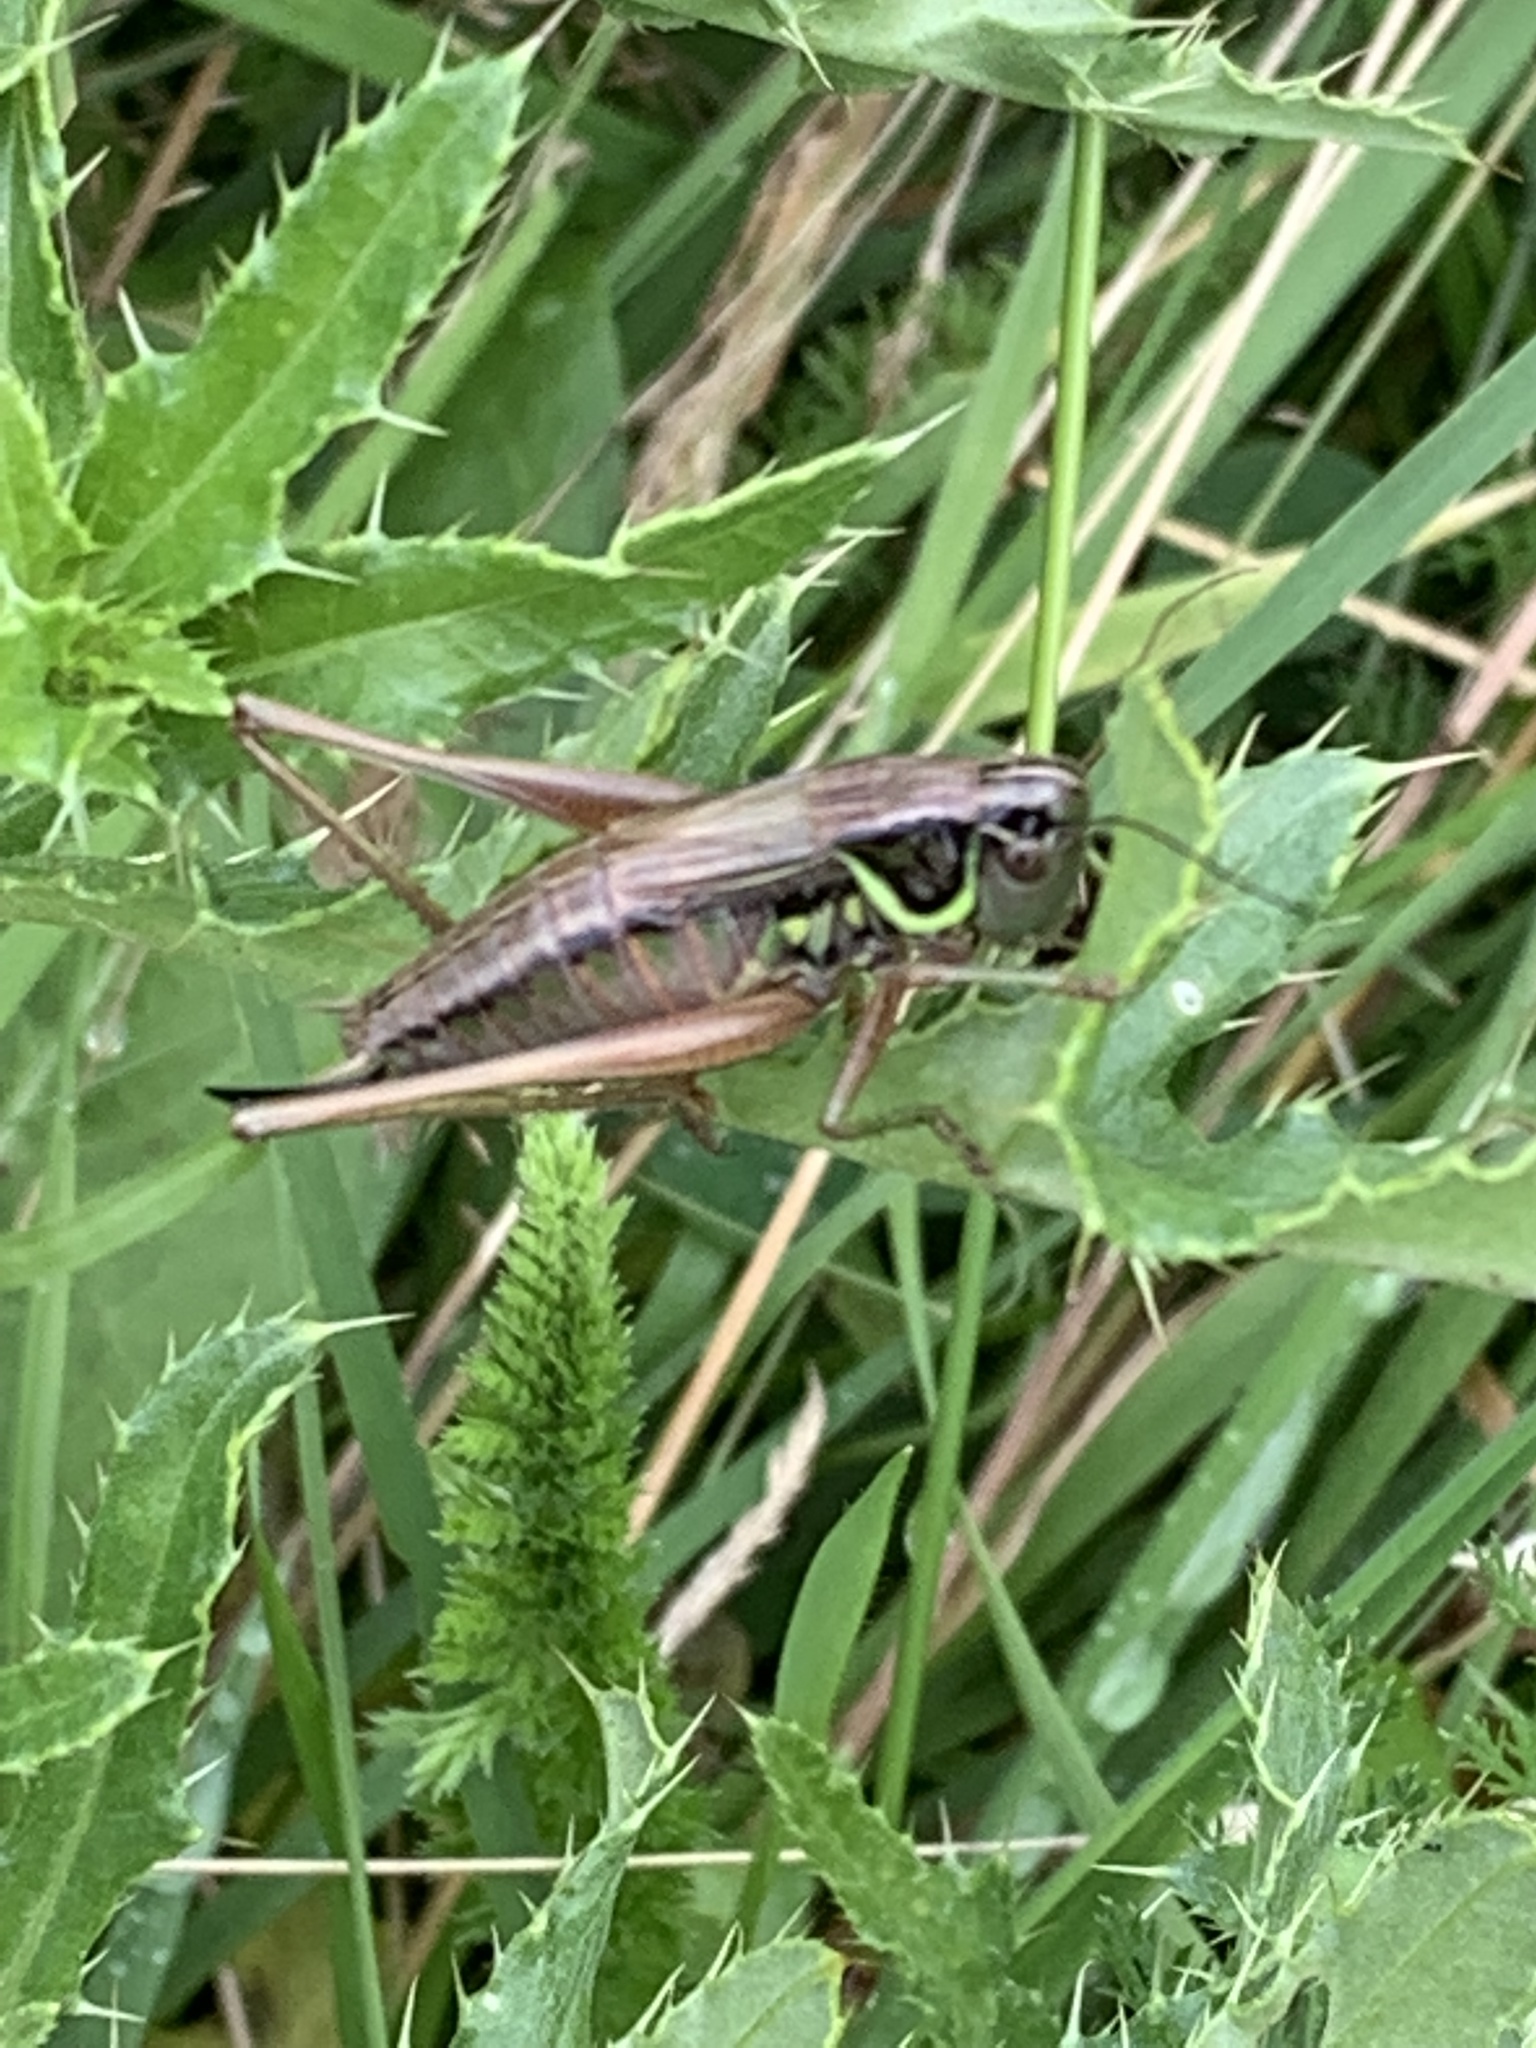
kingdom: Animalia
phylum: Arthropoda
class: Insecta
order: Orthoptera
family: Tettigoniidae
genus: Roeseliana
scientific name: Roeseliana roeselii
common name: Roesel's bush cricket
